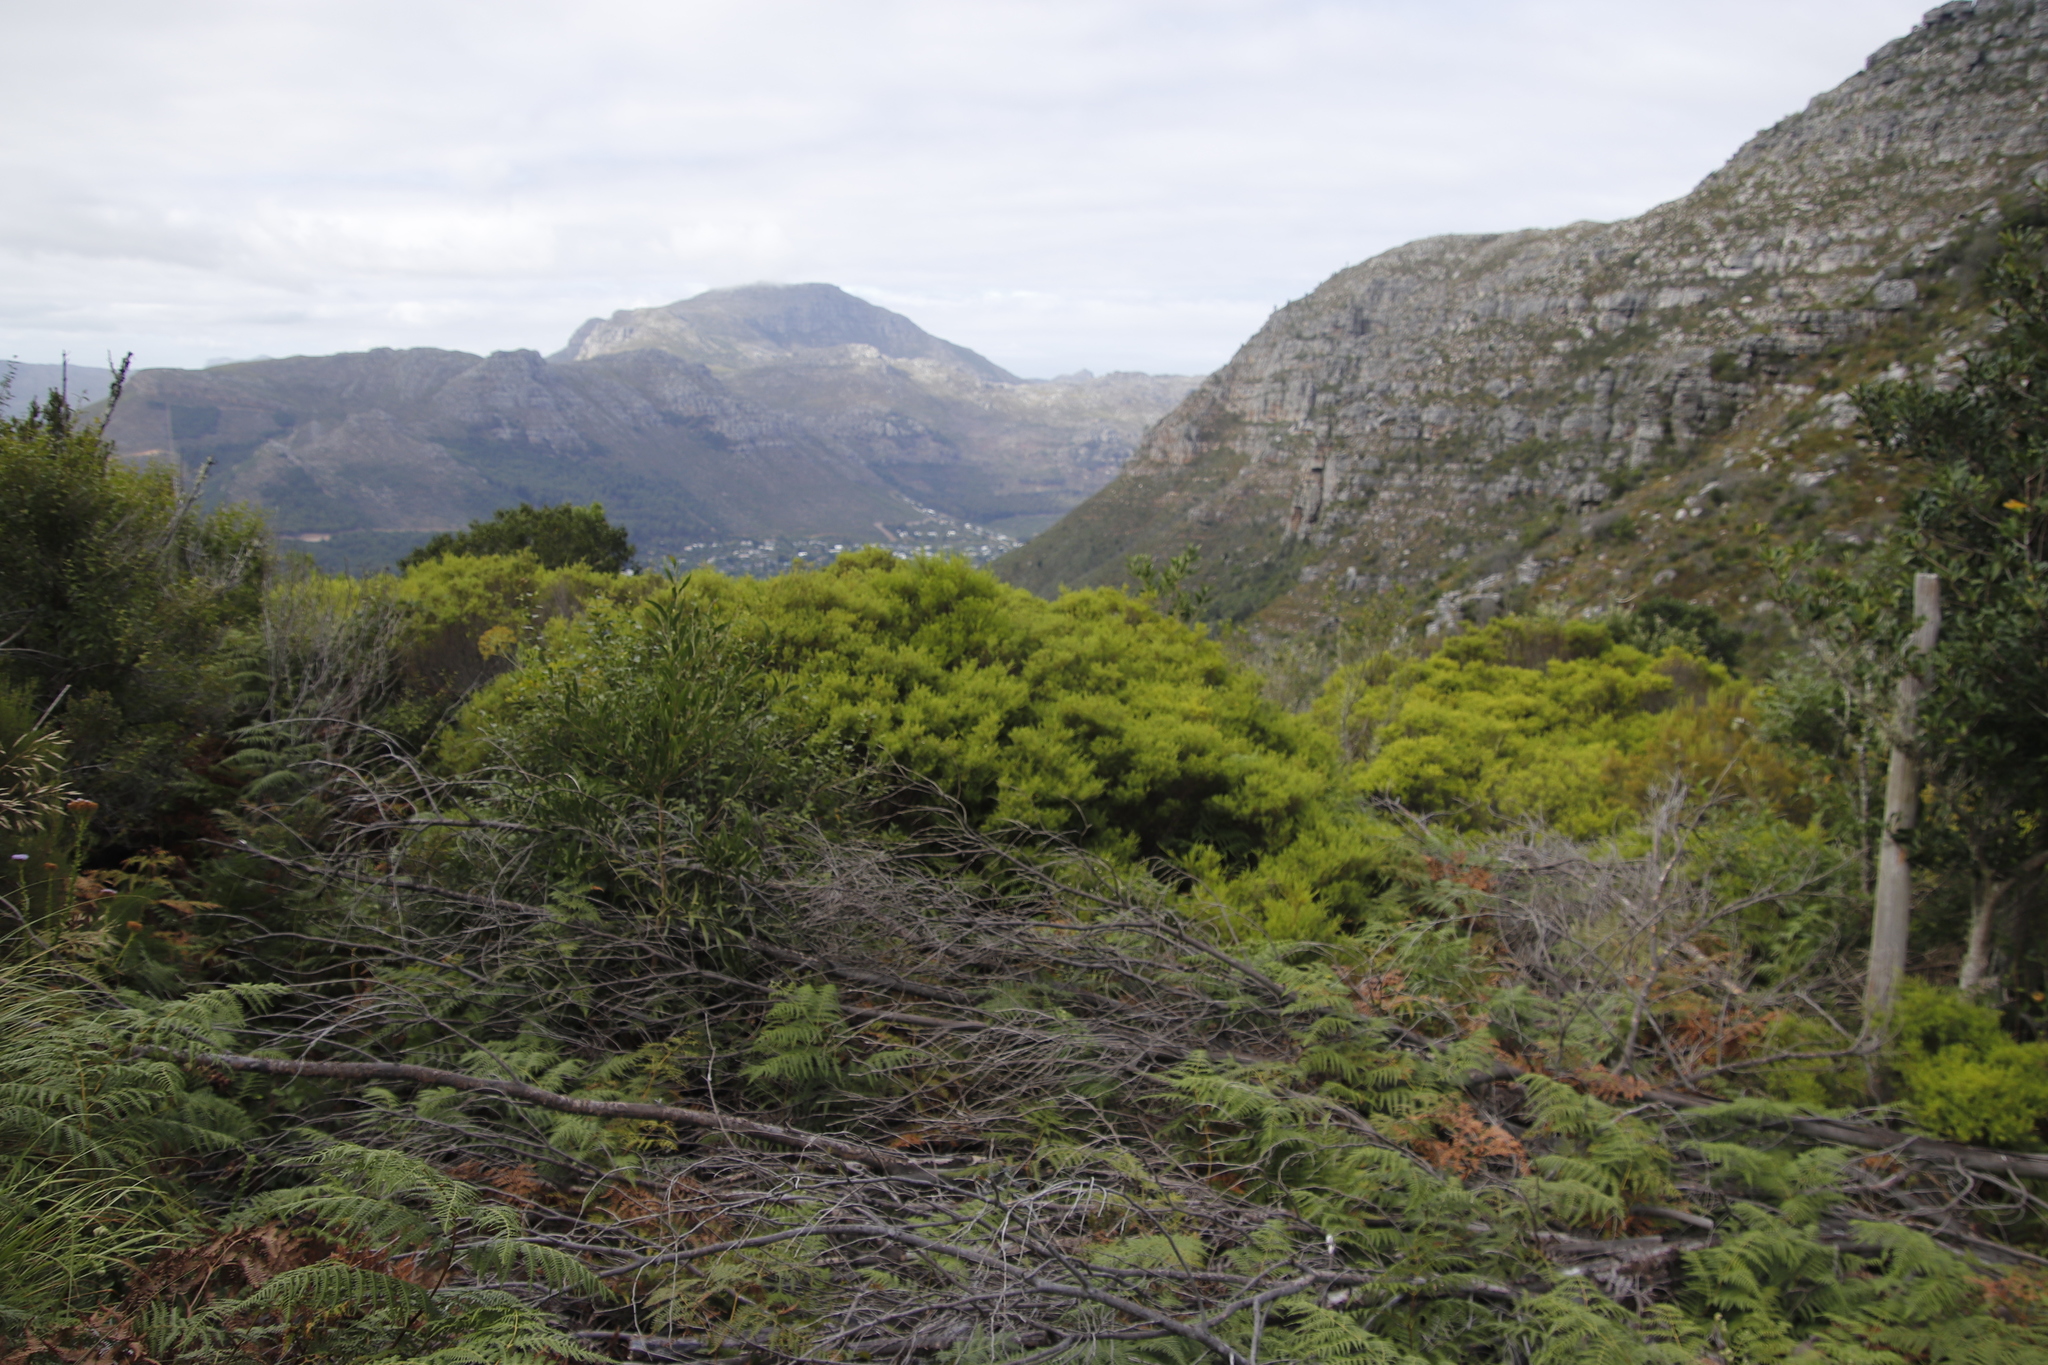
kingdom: Plantae
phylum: Tracheophyta
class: Magnoliopsida
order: Sapindales
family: Rutaceae
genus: Coleonema
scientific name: Coleonema album
